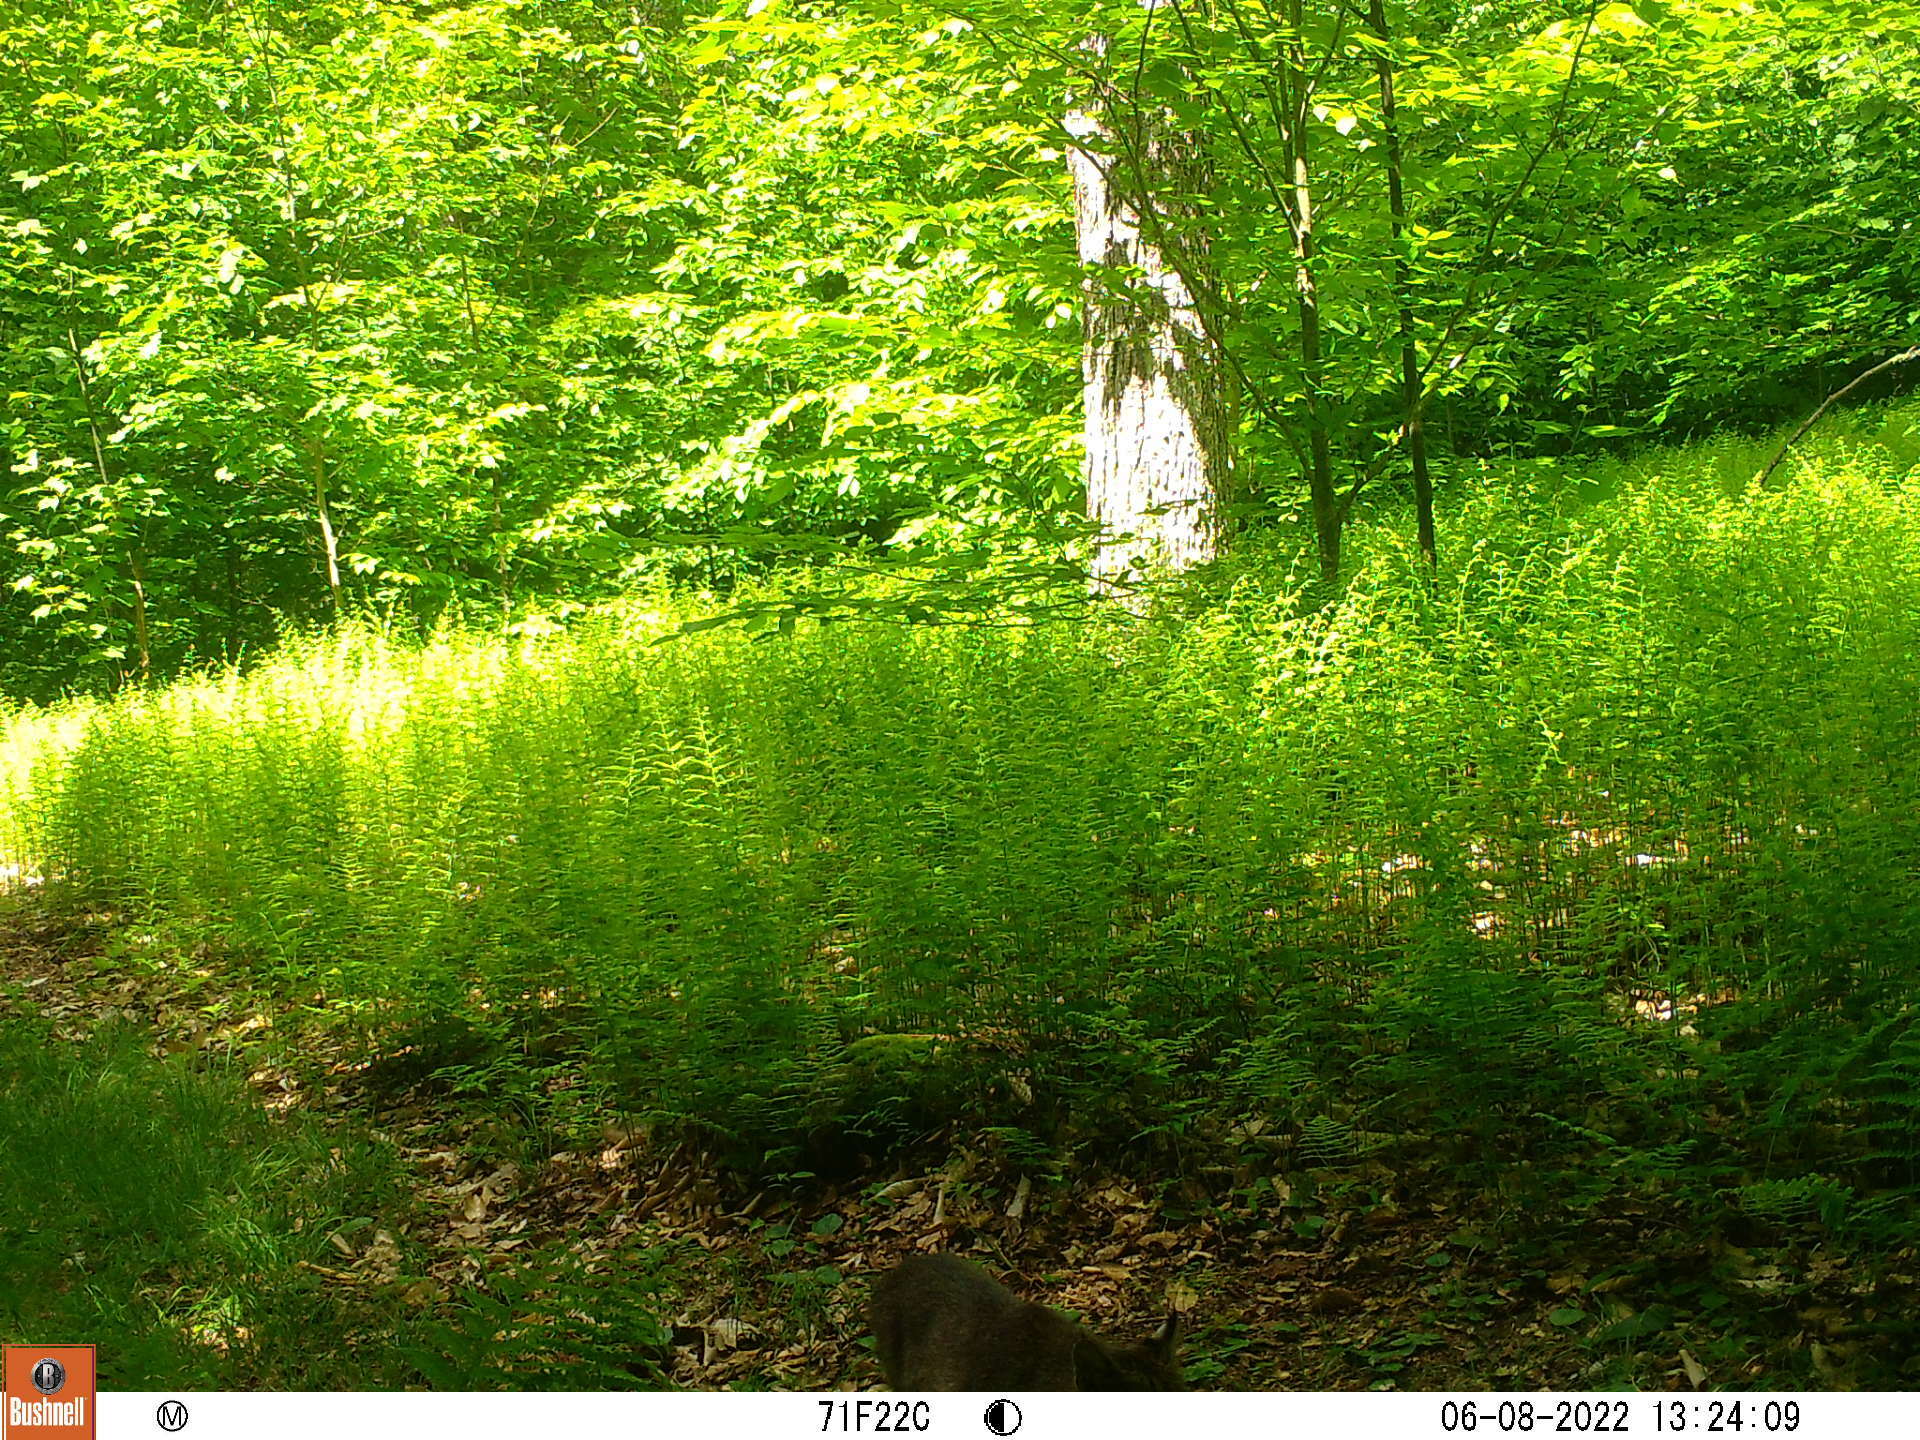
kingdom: Animalia
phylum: Chordata
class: Mammalia
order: Carnivora
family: Felidae
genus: Lynx
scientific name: Lynx rufus
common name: Bobcat
